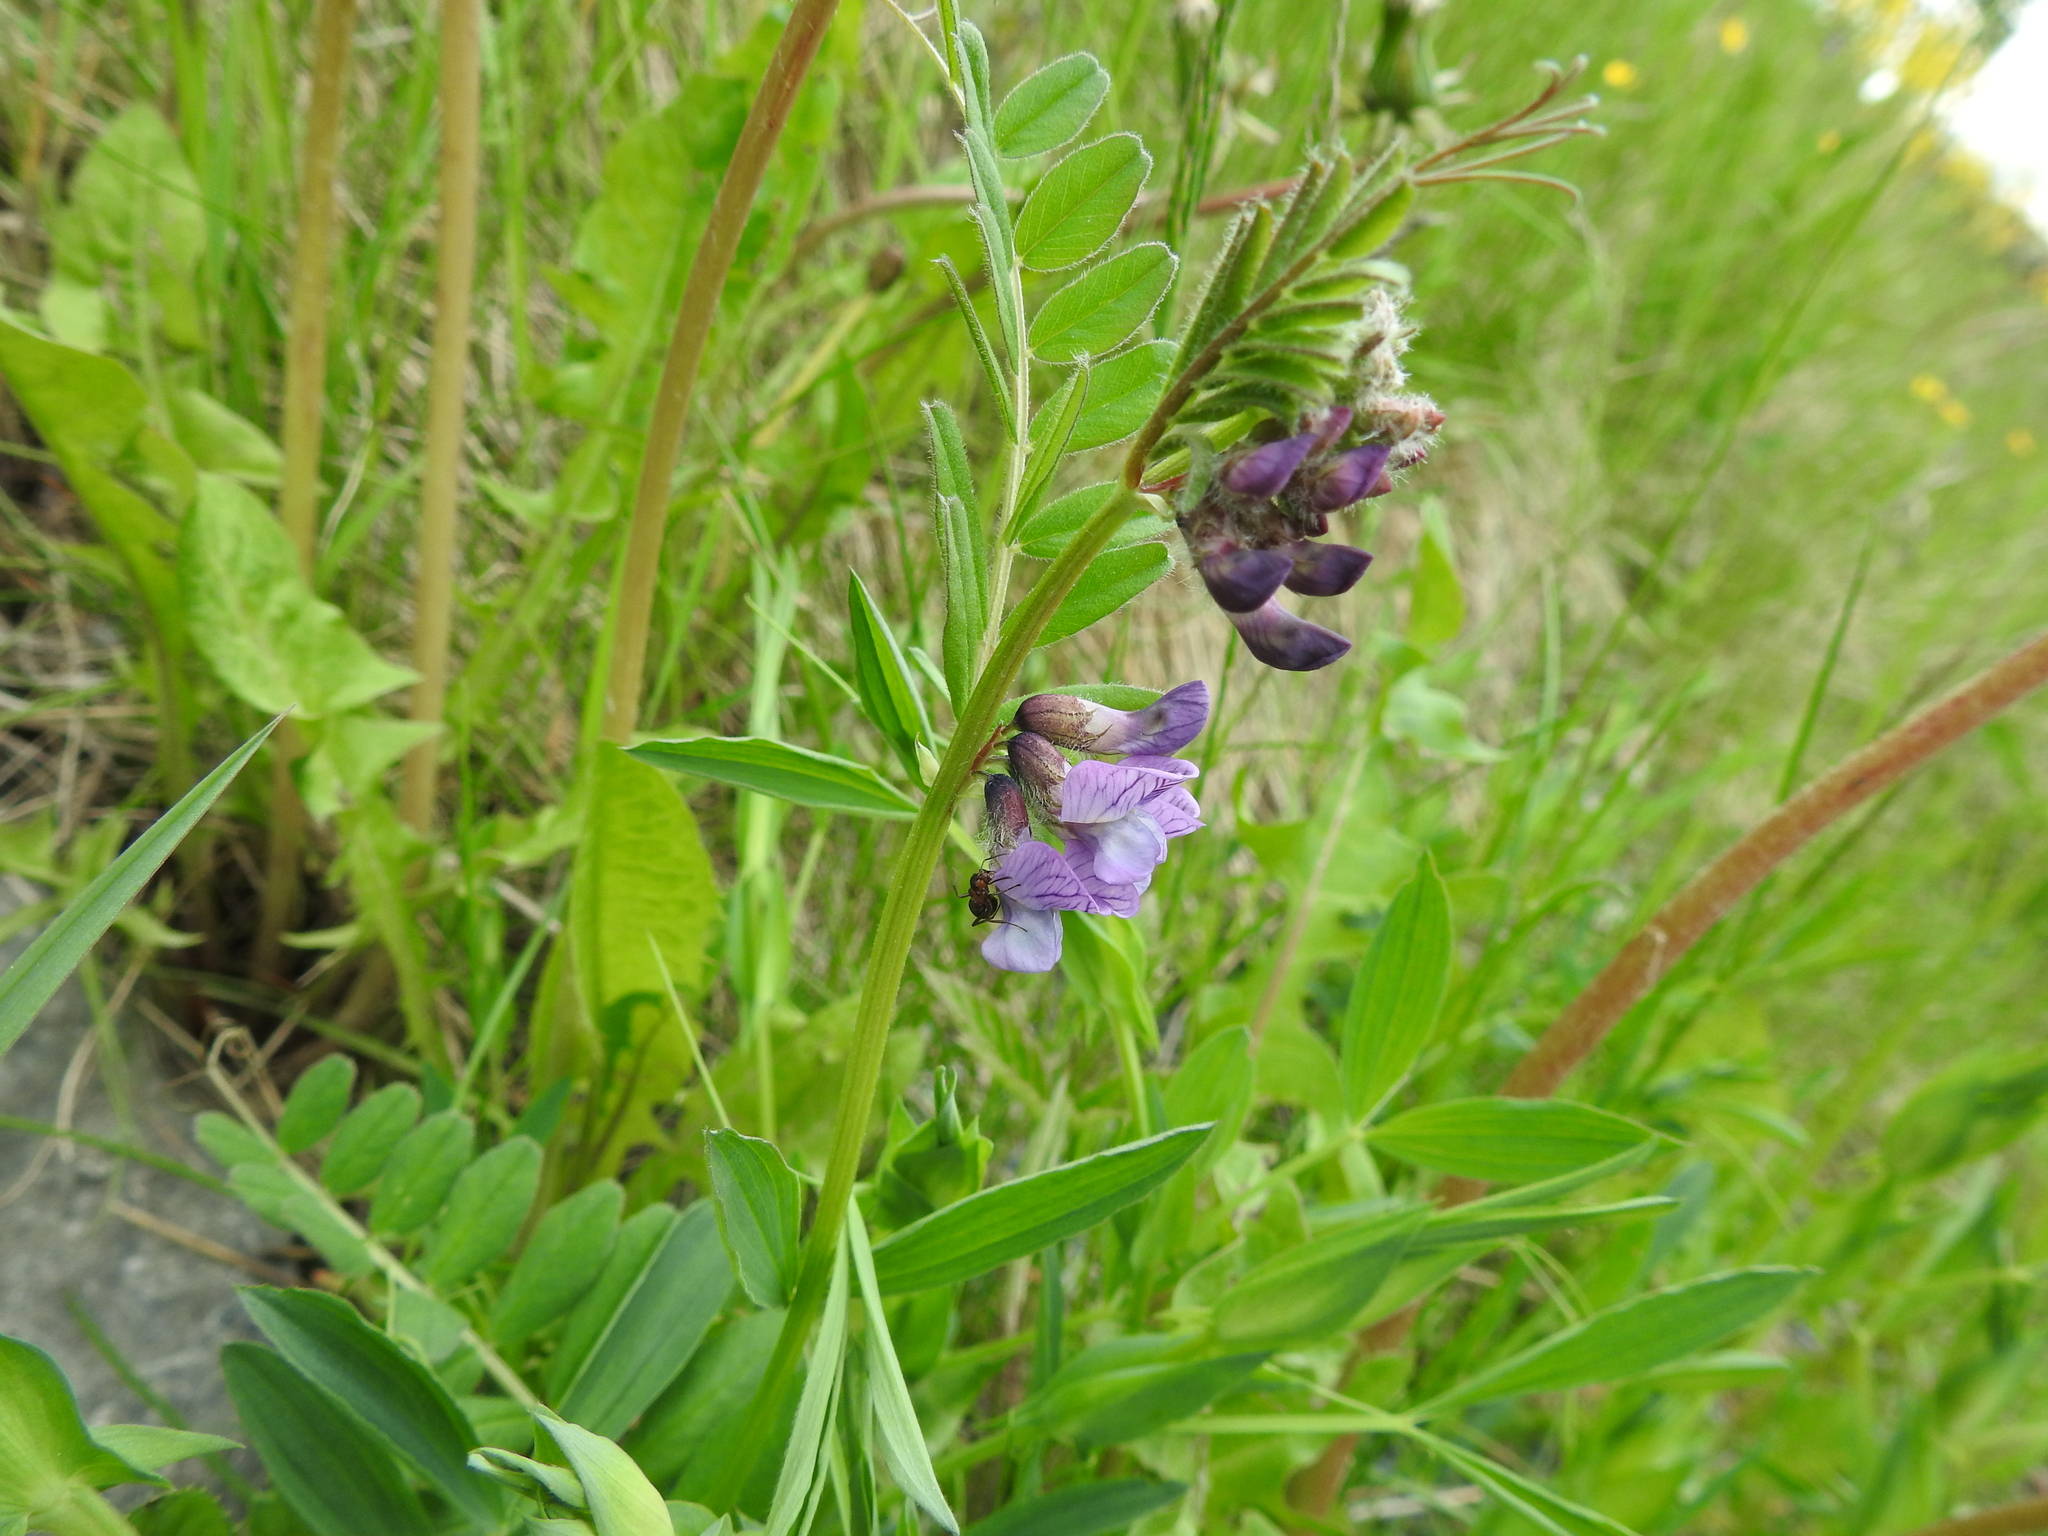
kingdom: Plantae
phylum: Tracheophyta
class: Magnoliopsida
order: Fabales
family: Fabaceae
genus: Vicia
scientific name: Vicia sepium
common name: Bush vetch
